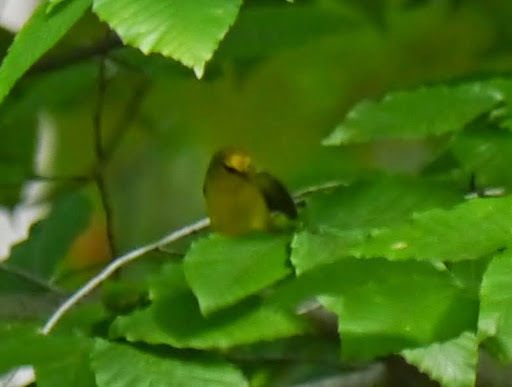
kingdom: Animalia
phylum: Chordata
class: Aves
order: Passeriformes
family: Parulidae
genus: Vermivora
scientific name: Vermivora cyanoptera
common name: Blue-winged warbler
